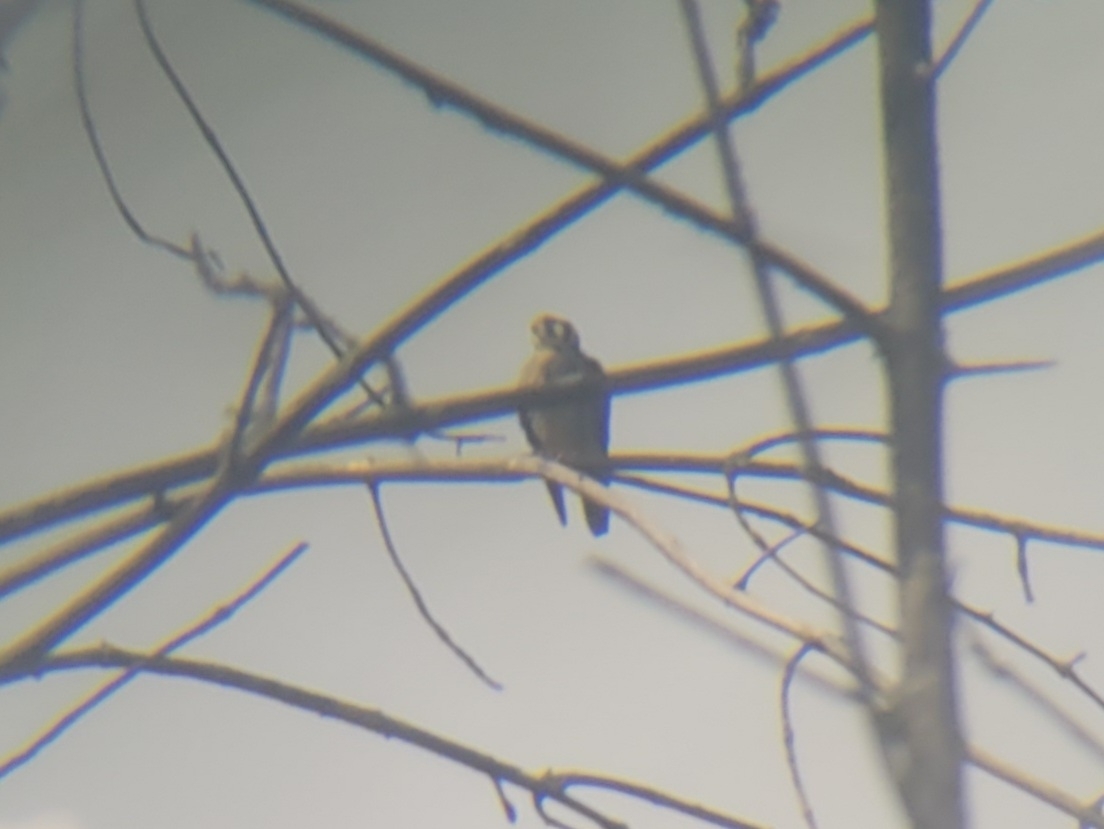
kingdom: Animalia
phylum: Chordata
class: Aves
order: Falconiformes
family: Falconidae
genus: Falco
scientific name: Falco sparverius
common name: American kestrel
